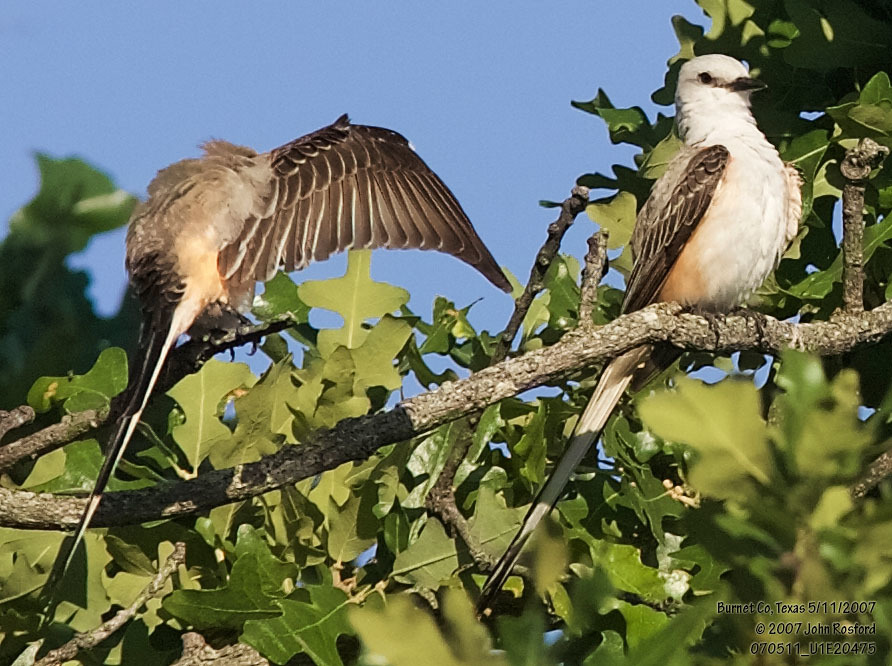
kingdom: Animalia
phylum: Chordata
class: Aves
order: Passeriformes
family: Tyrannidae
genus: Tyrannus
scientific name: Tyrannus forficatus
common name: Scissor-tailed flycatcher
